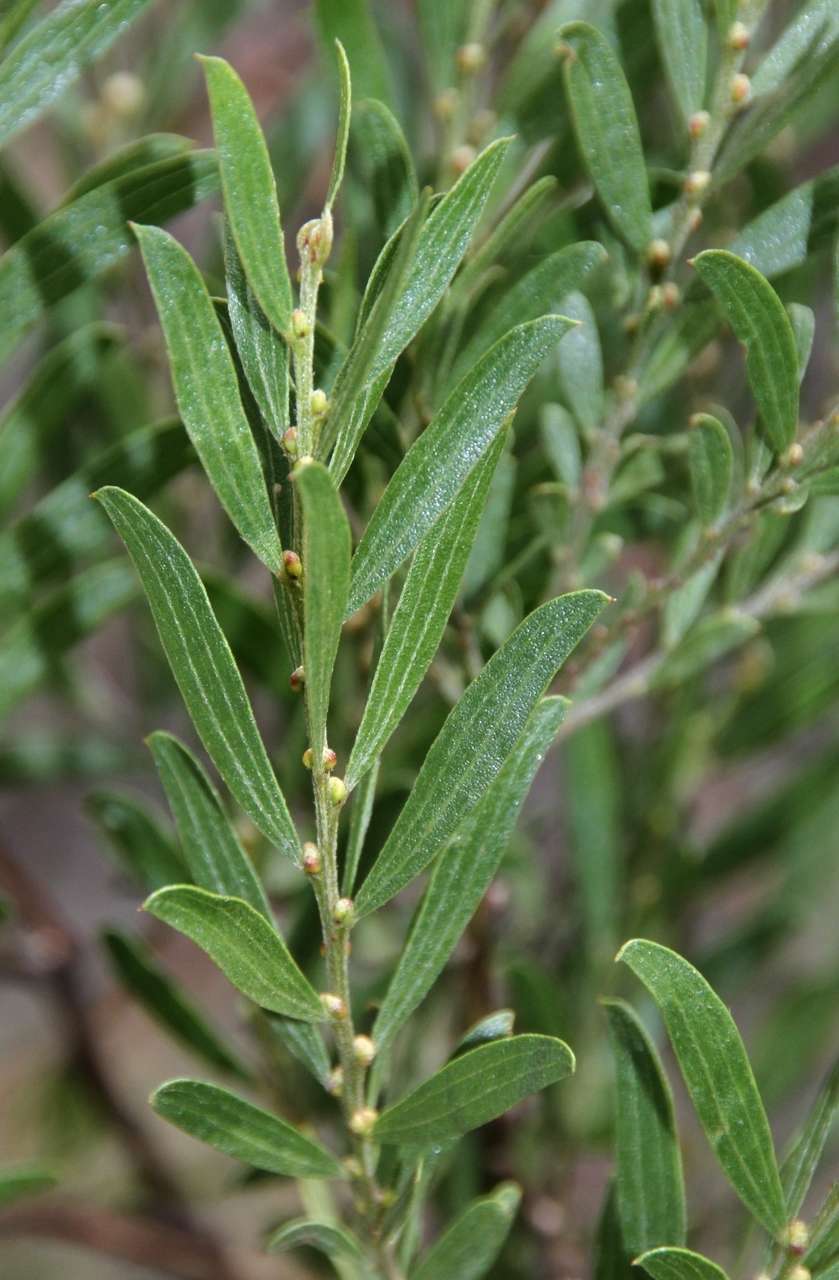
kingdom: Plantae
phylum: Tracheophyta
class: Magnoliopsida
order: Fabales
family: Fabaceae
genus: Acacia
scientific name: Acacia rostriformis
